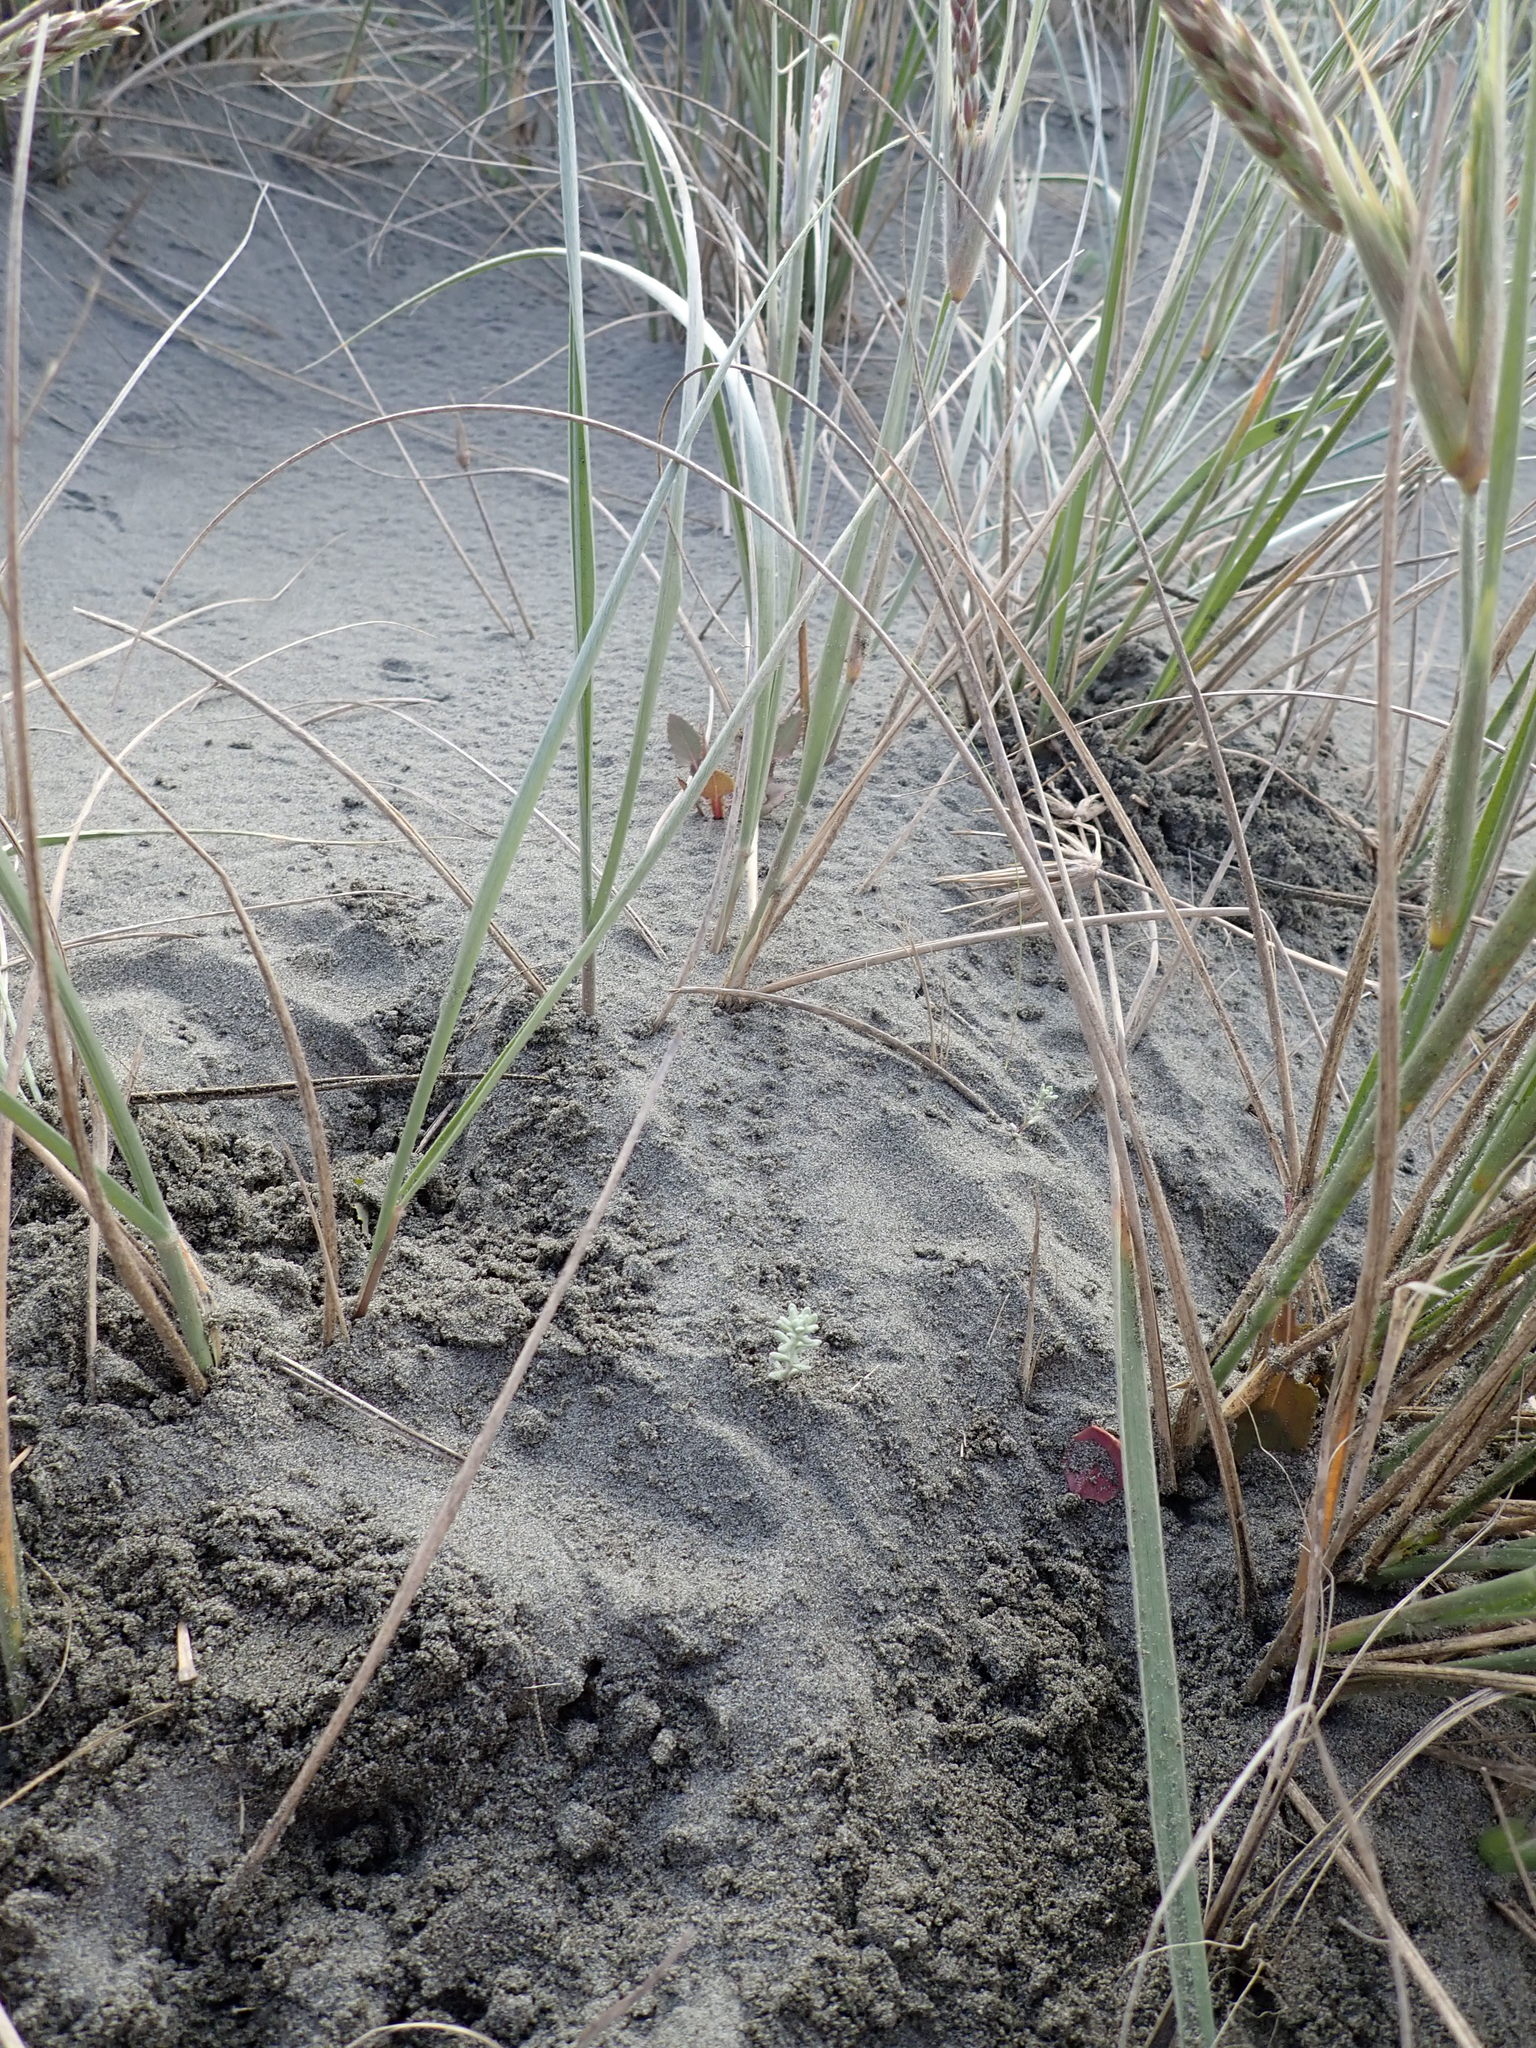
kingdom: Plantae
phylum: Tracheophyta
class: Magnoliopsida
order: Asterales
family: Asteraceae
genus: Ozothamnus
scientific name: Ozothamnus leptophyllus
